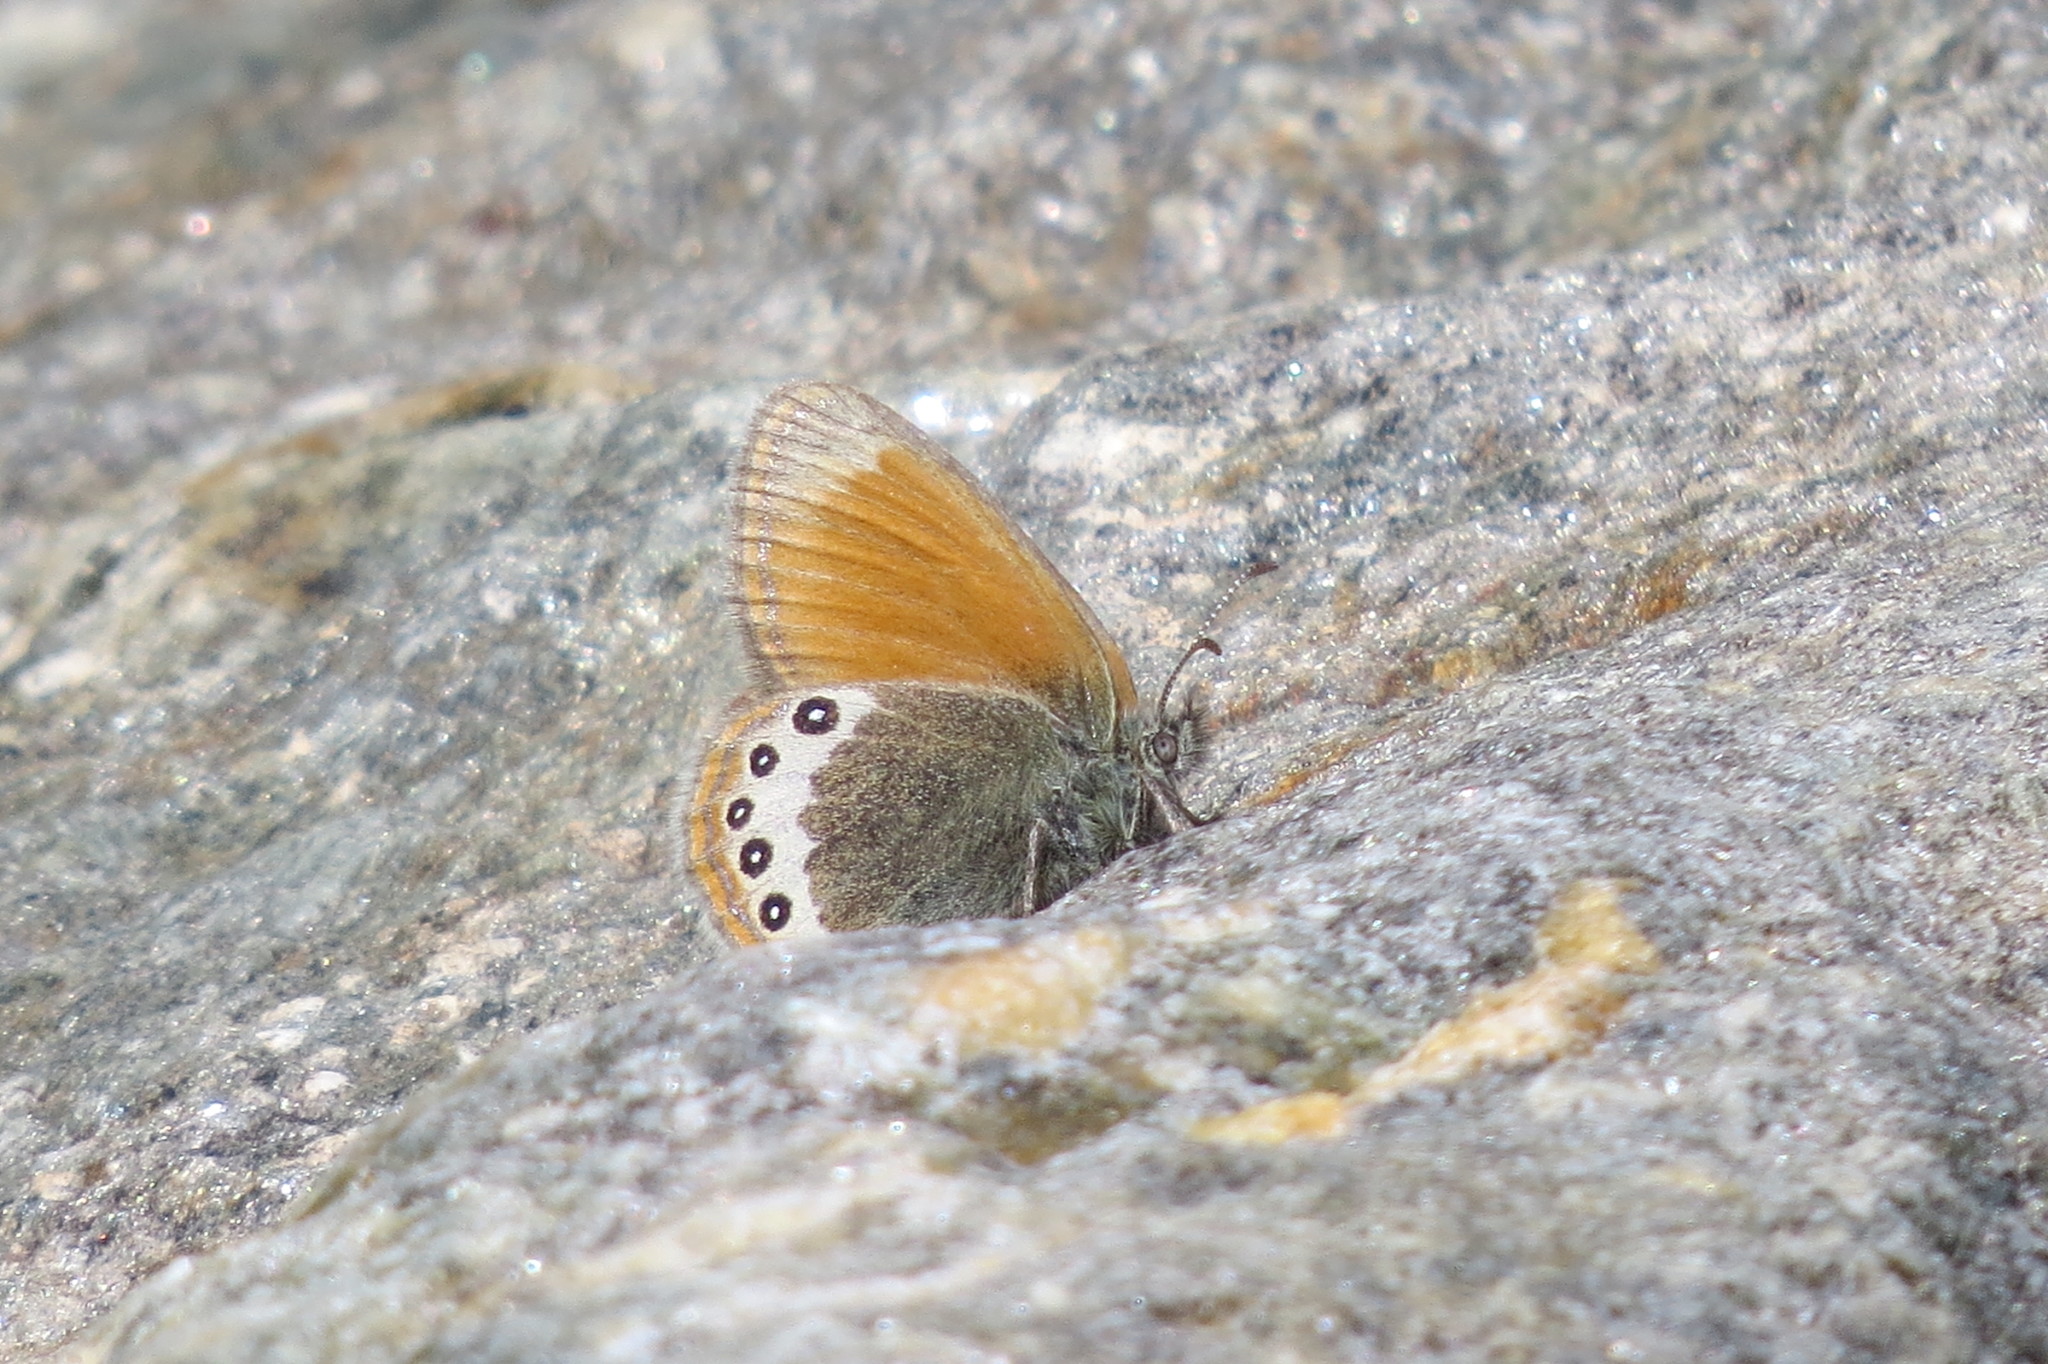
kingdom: Animalia
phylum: Arthropoda
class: Insecta
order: Lepidoptera
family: Nymphalidae
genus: Coenonympha
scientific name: Coenonympha
